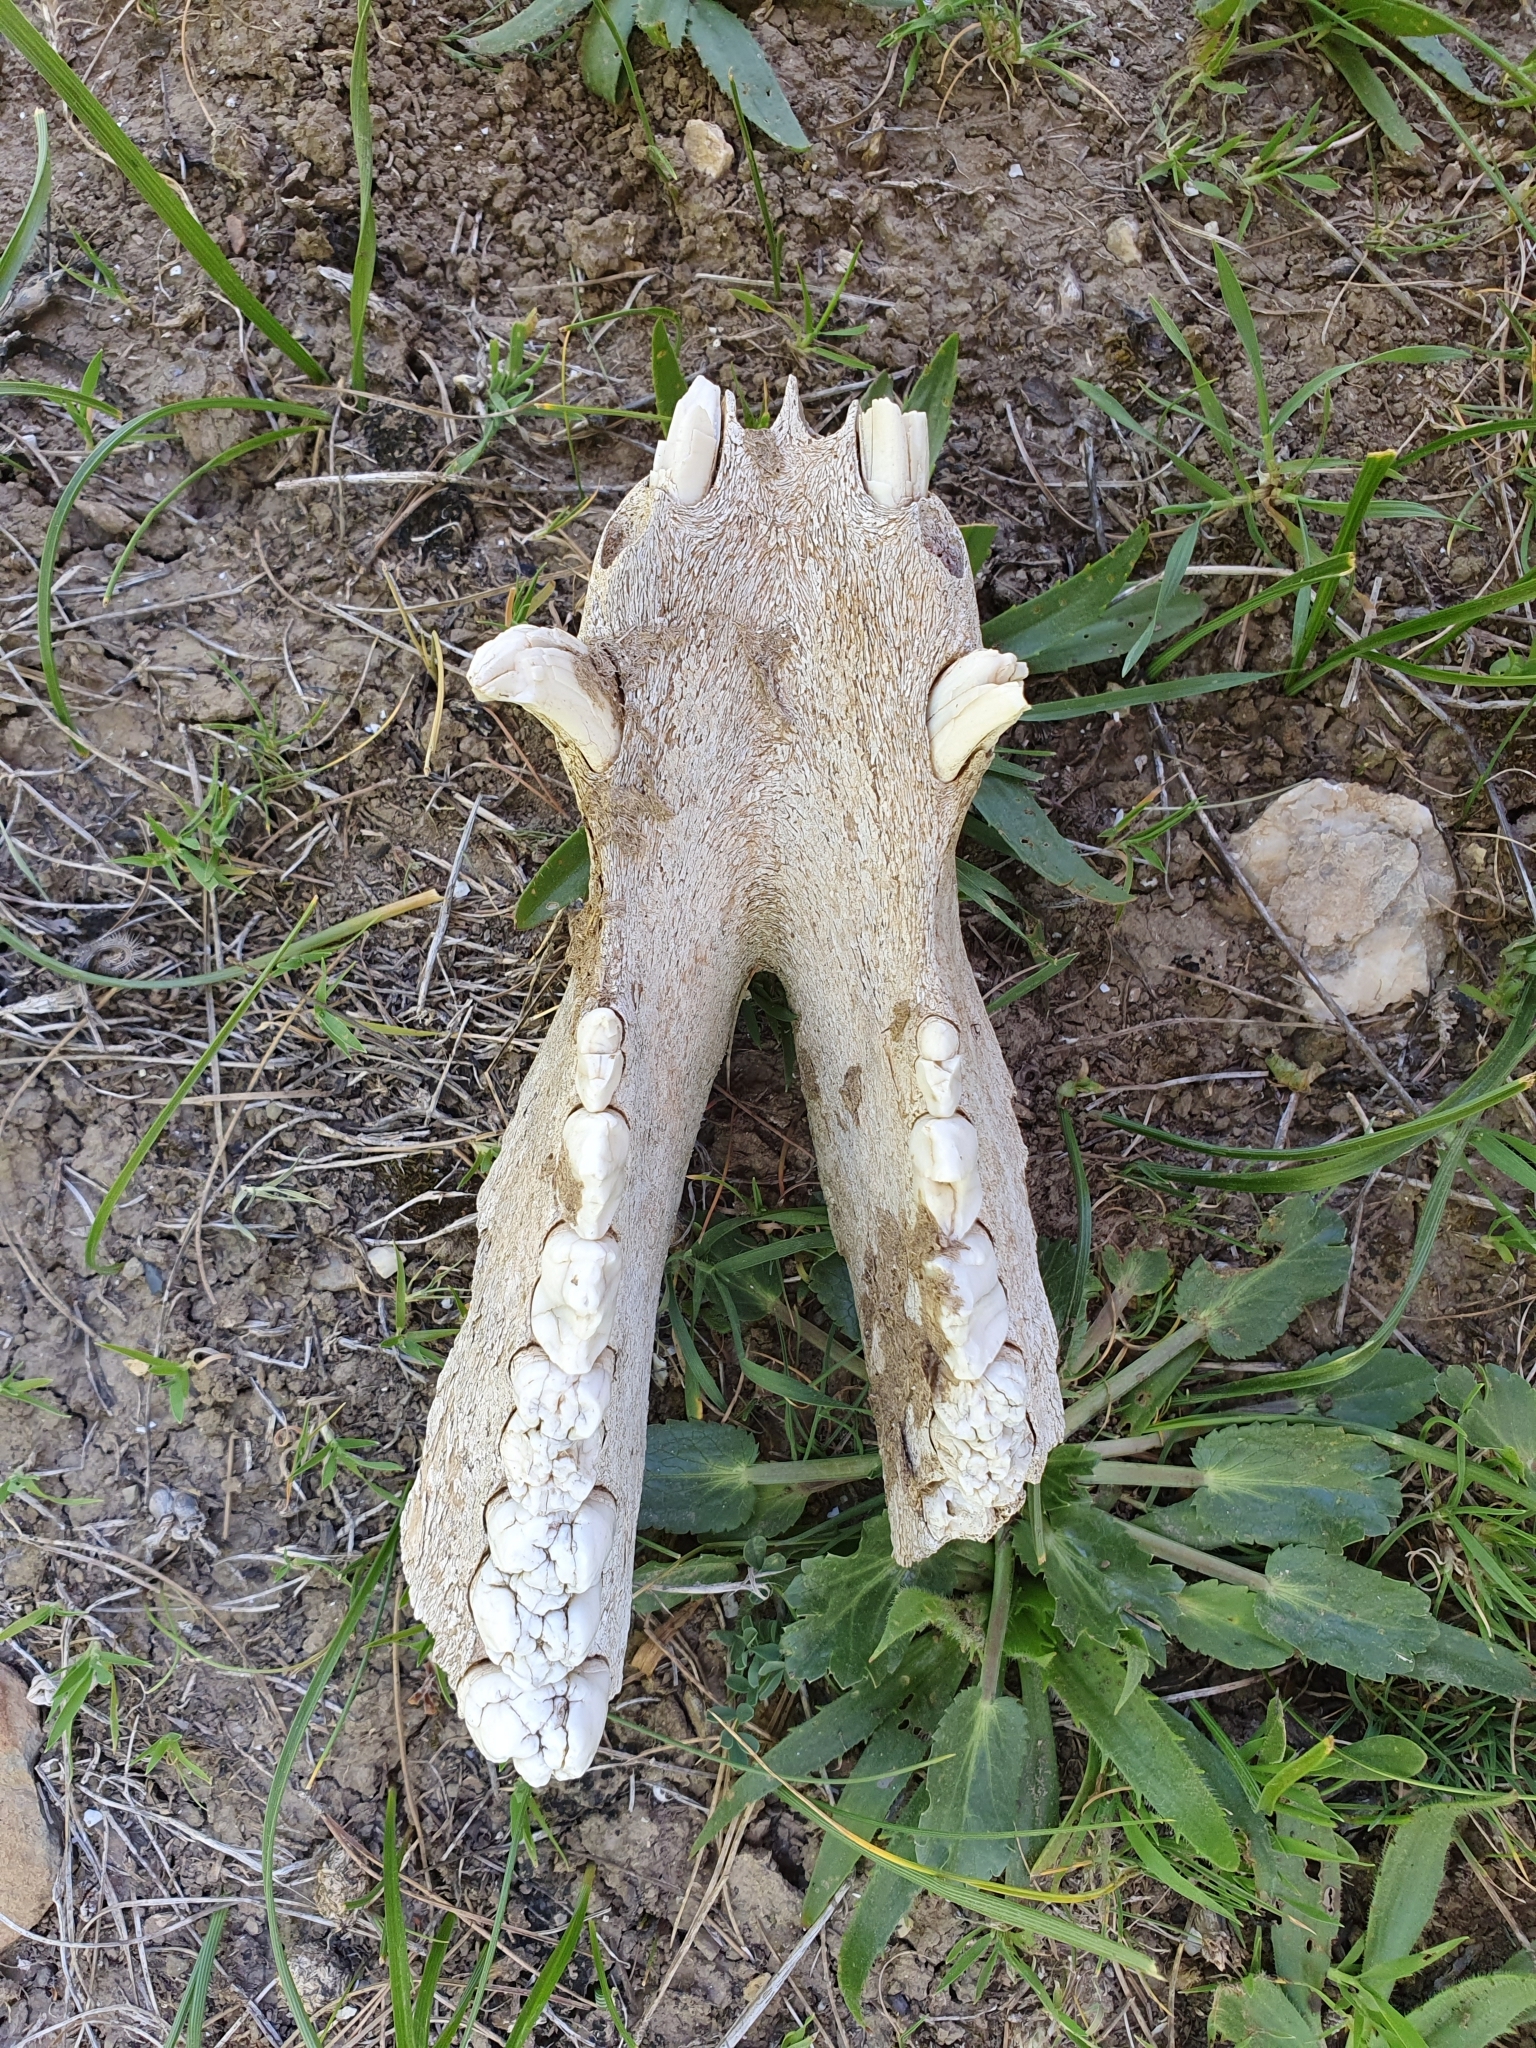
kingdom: Animalia
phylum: Chordata
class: Mammalia
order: Artiodactyla
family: Suidae
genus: Sus
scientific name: Sus scrofa
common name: Wild boar
